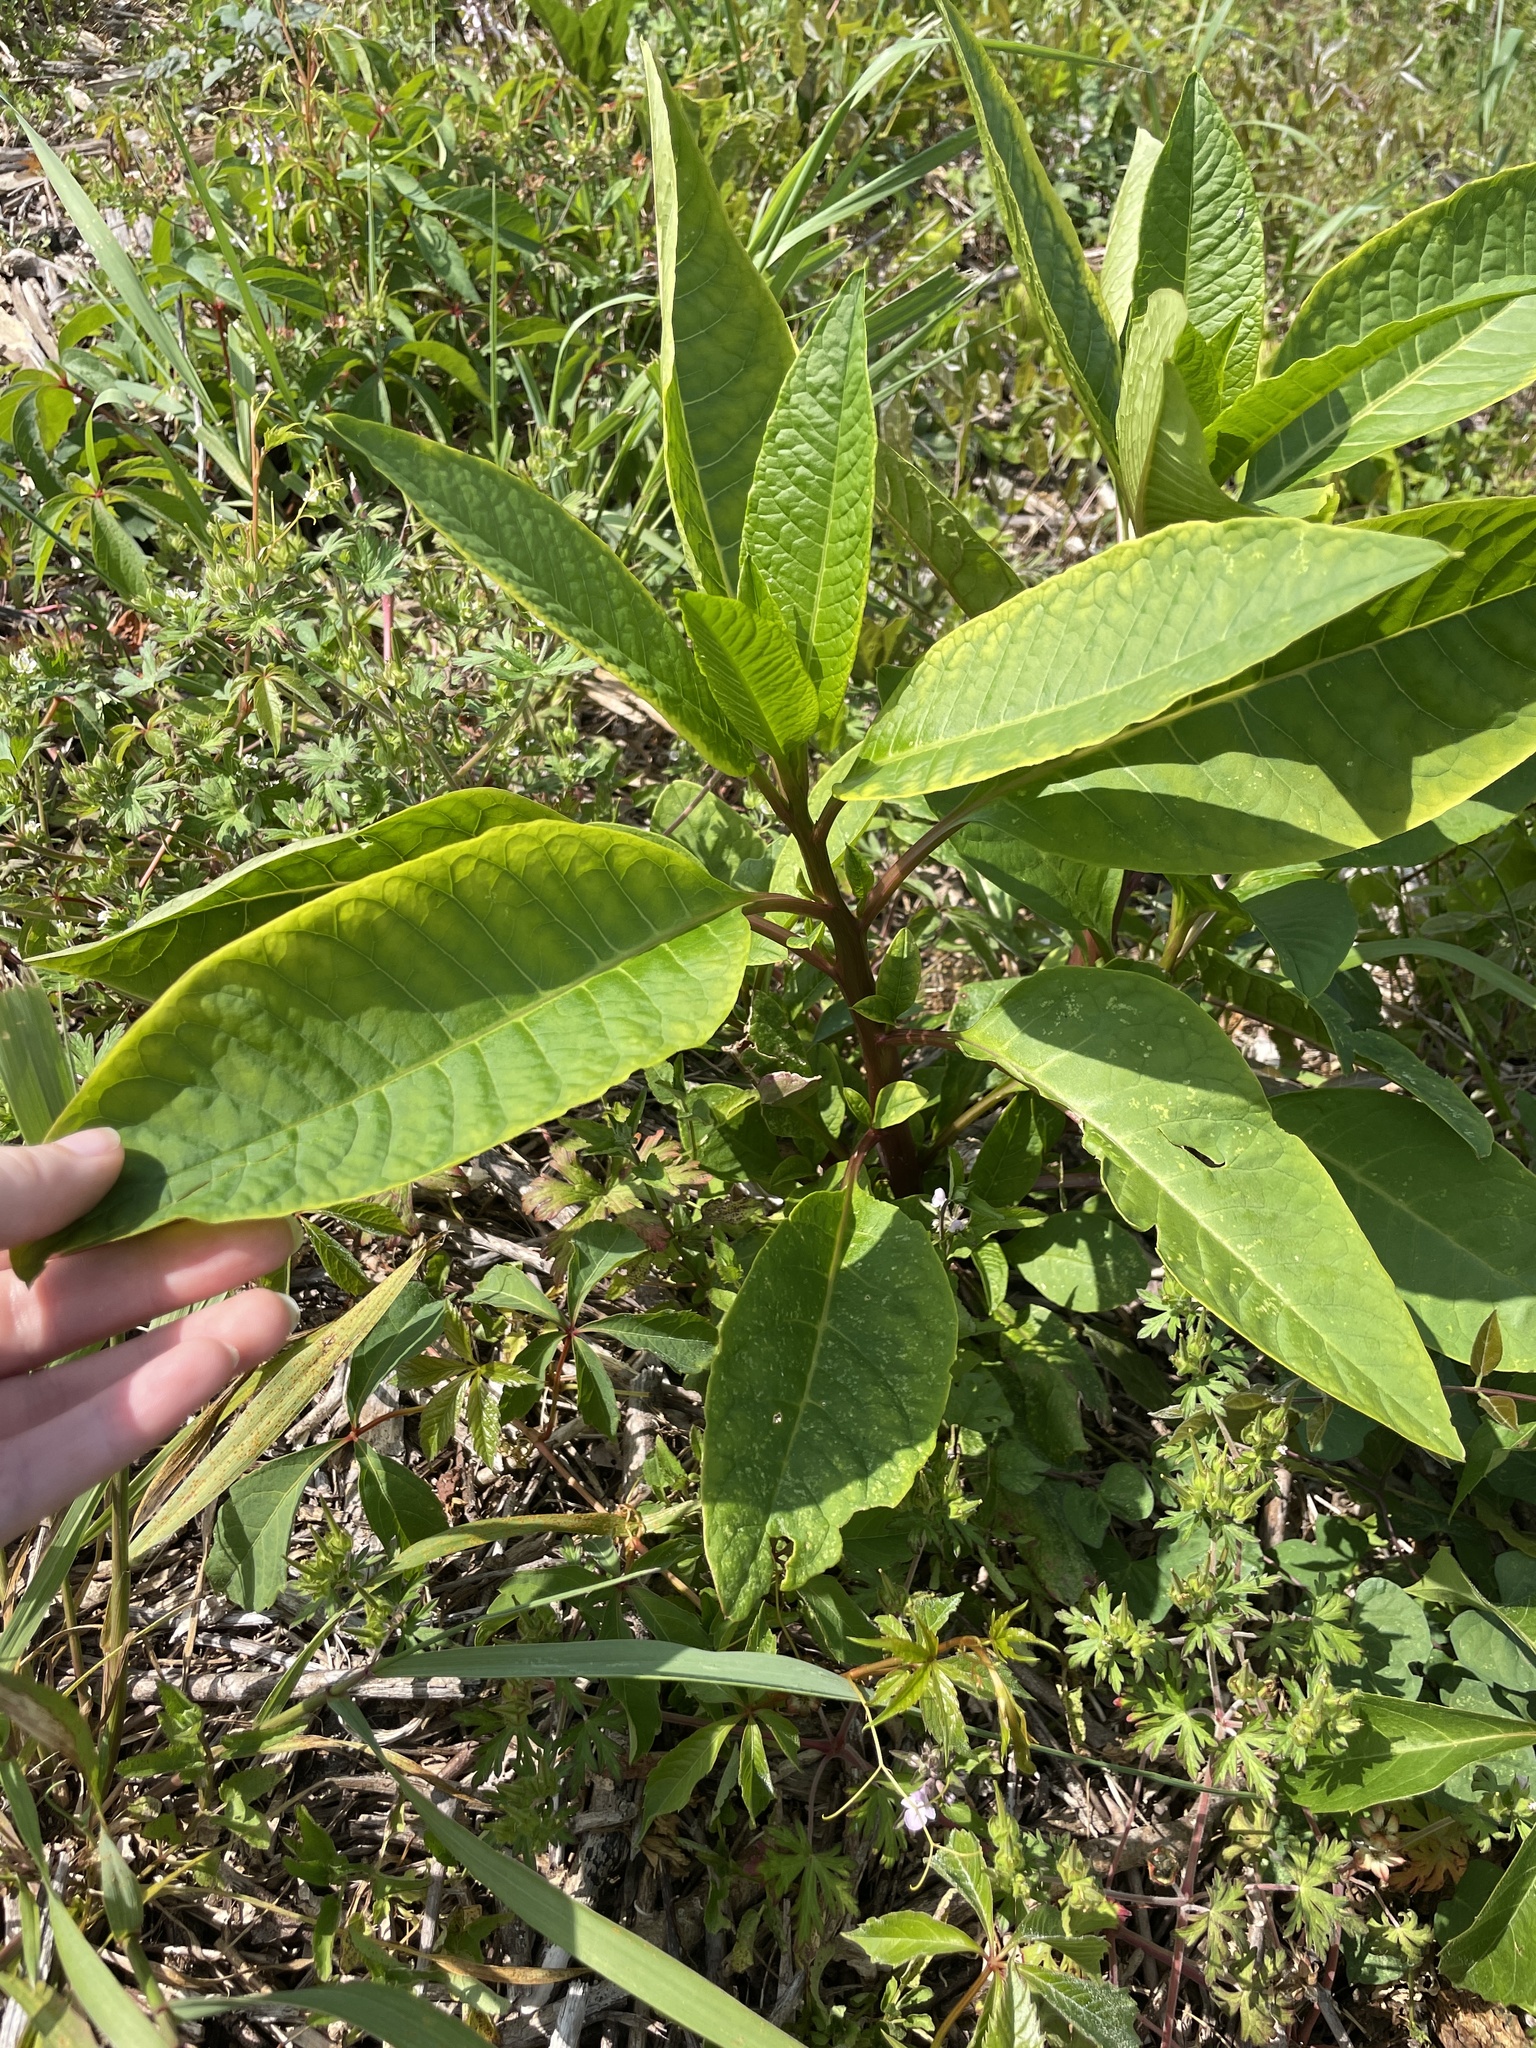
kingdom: Plantae
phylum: Tracheophyta
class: Magnoliopsida
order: Caryophyllales
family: Phytolaccaceae
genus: Phytolacca
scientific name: Phytolacca americana
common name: American pokeweed
